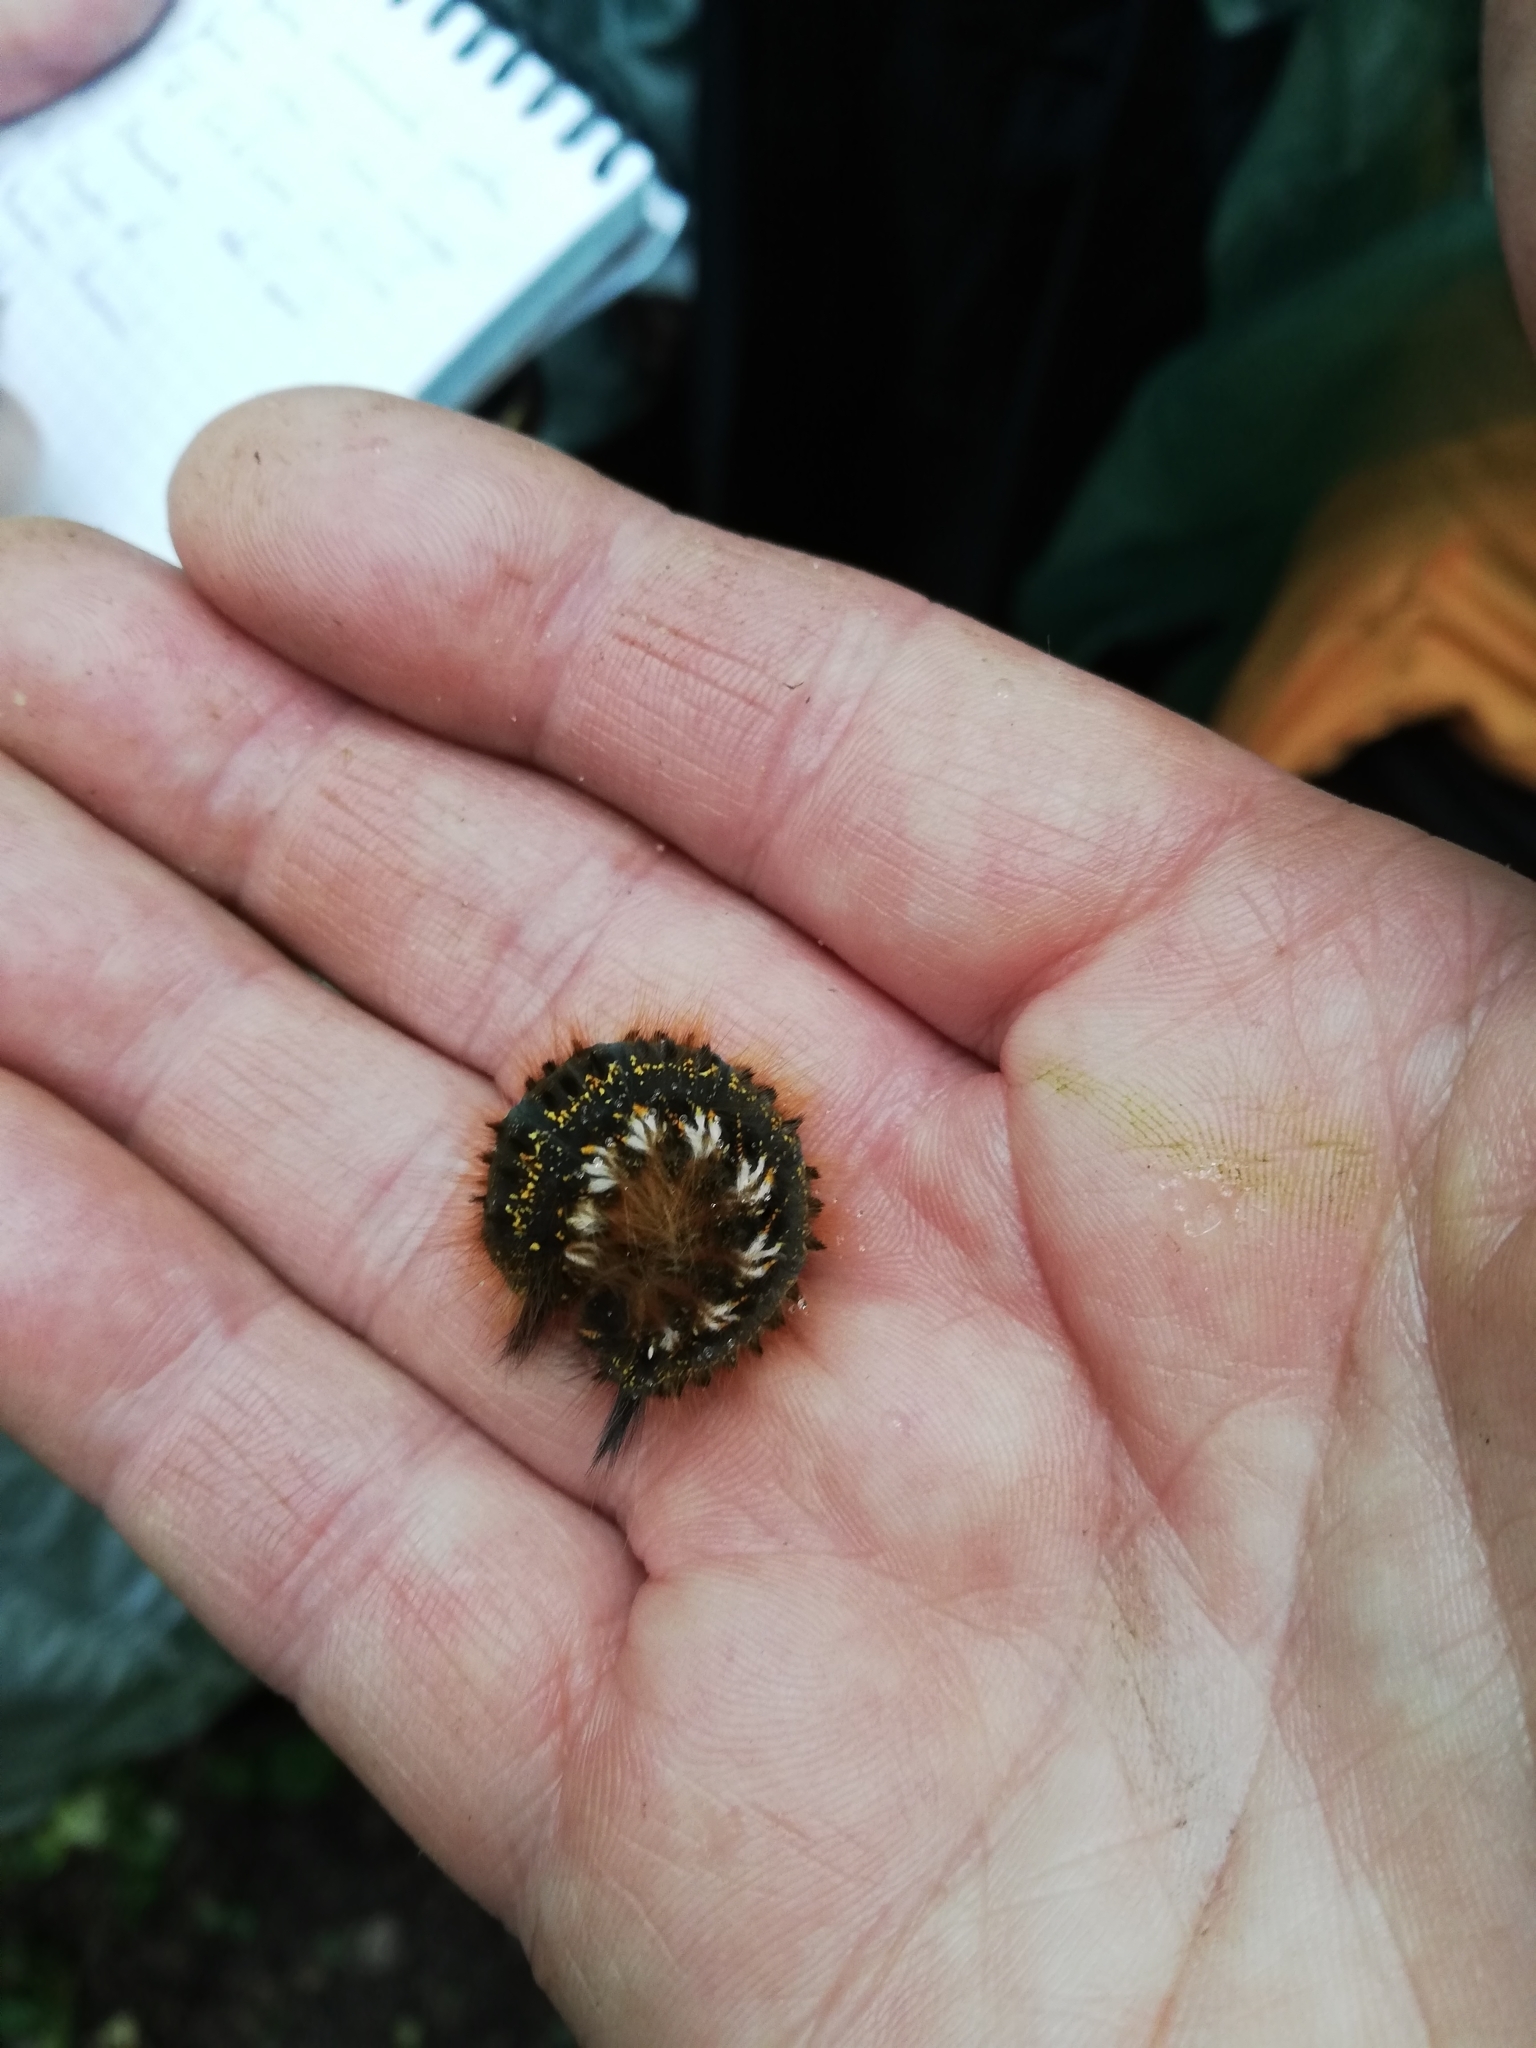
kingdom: Animalia
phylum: Arthropoda
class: Insecta
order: Lepidoptera
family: Lasiocampidae
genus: Euthrix
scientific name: Euthrix potatoria
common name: Drinker
